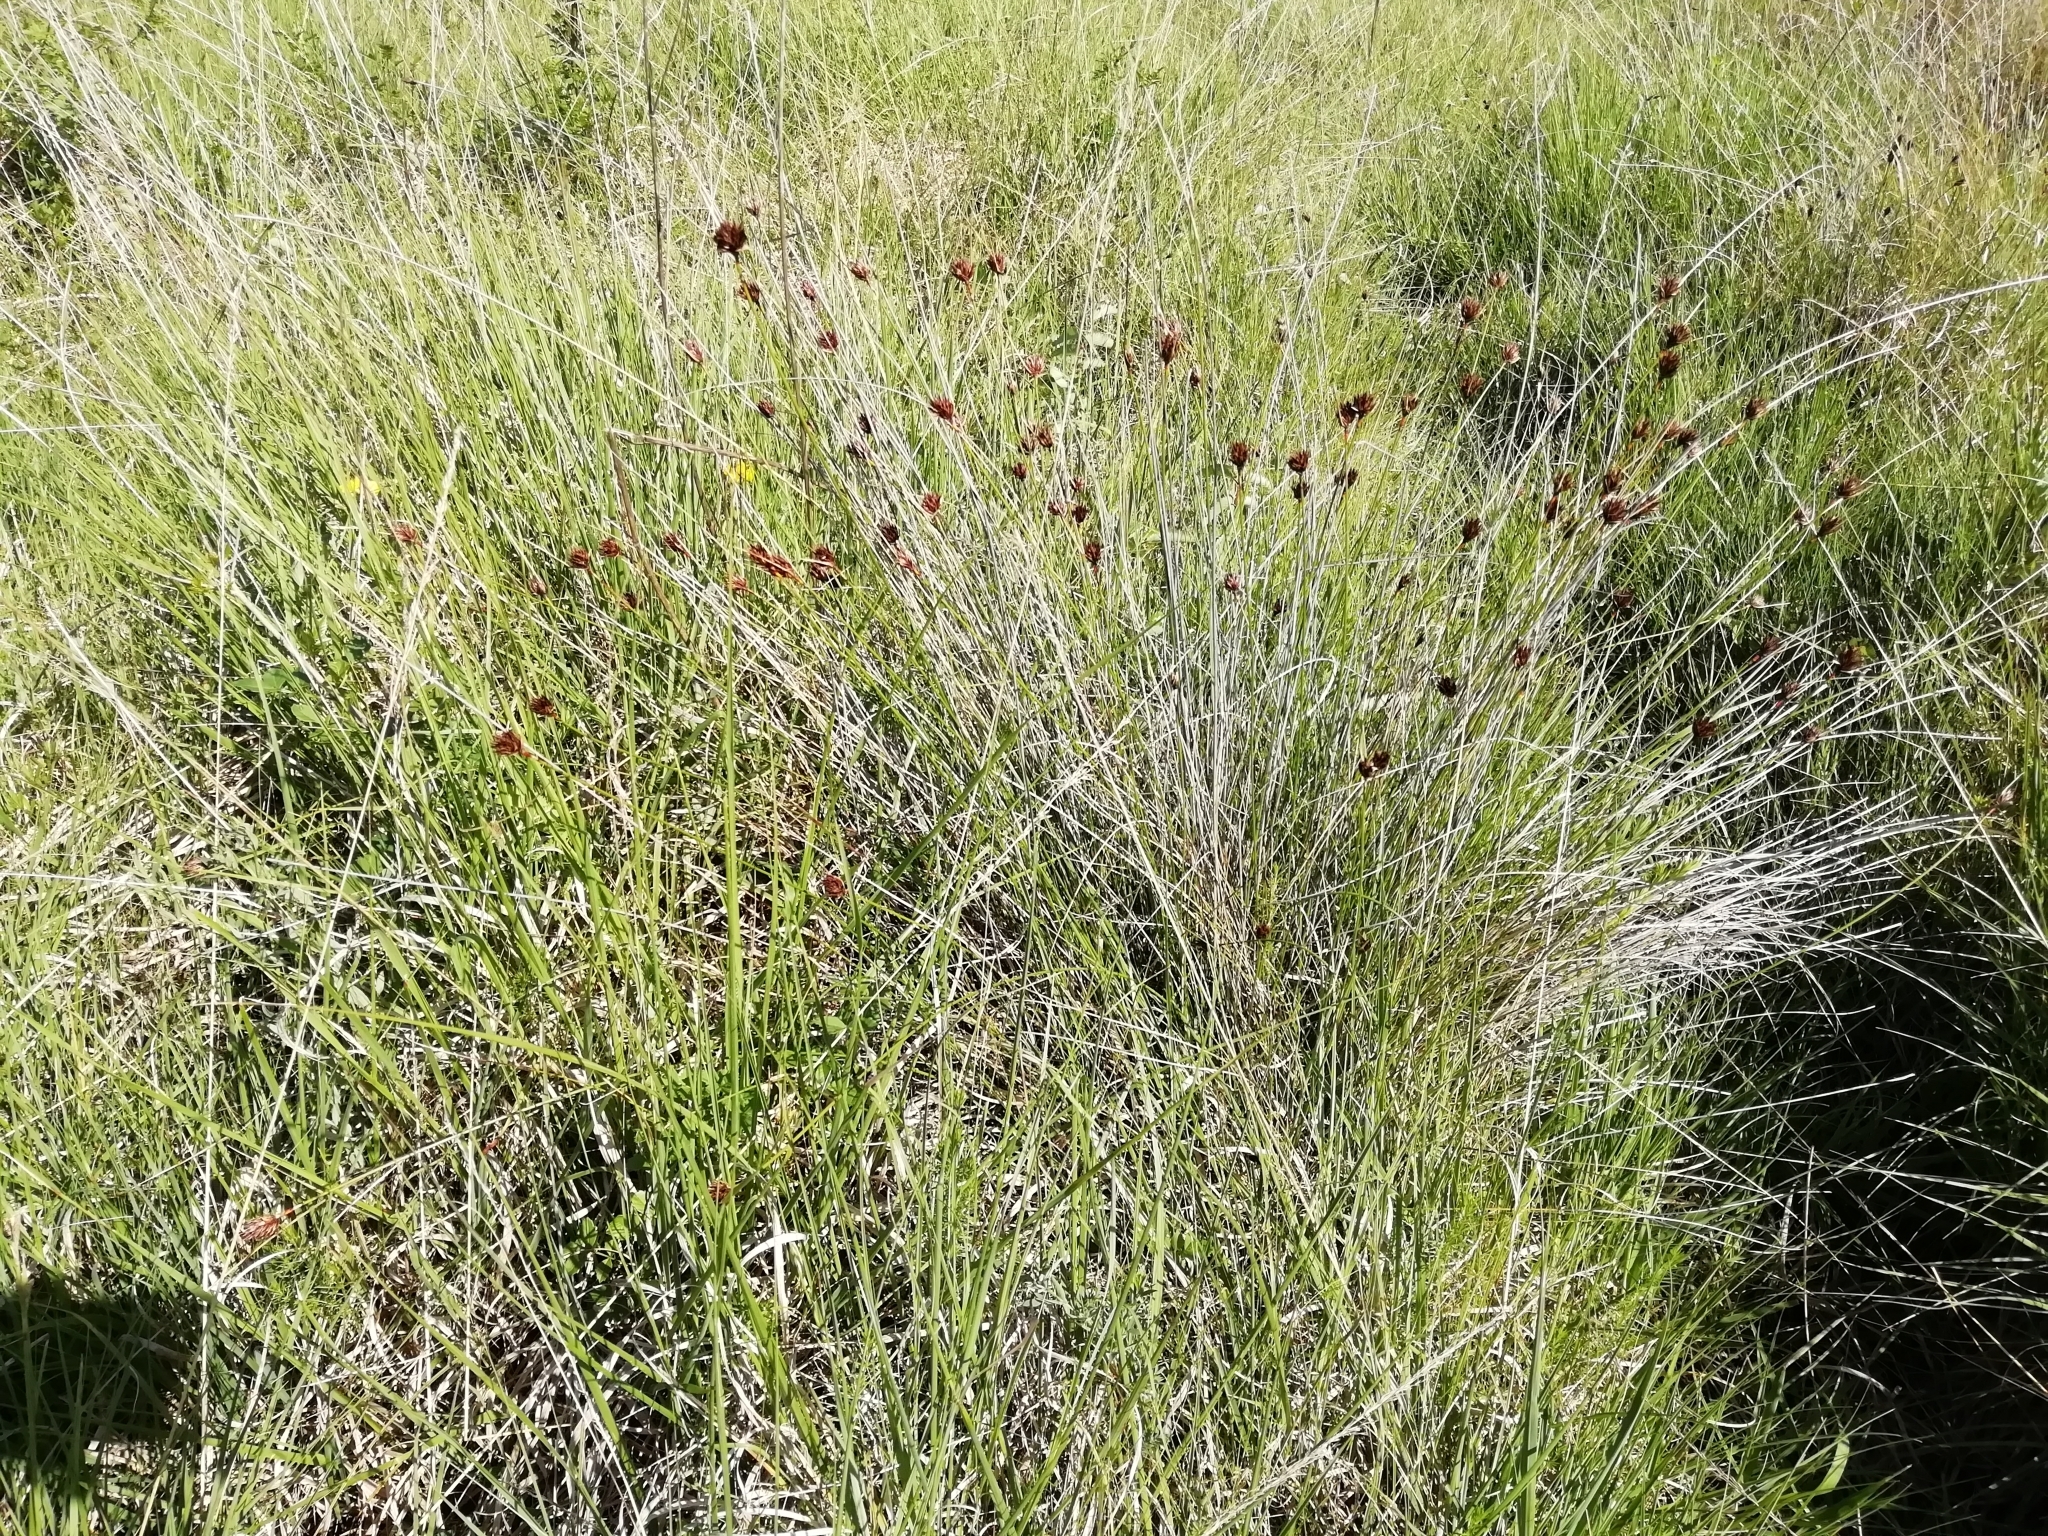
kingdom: Plantae
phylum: Tracheophyta
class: Liliopsida
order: Poales
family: Cyperaceae
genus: Schoenus
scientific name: Schoenus nigricans
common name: Black bog-rush
